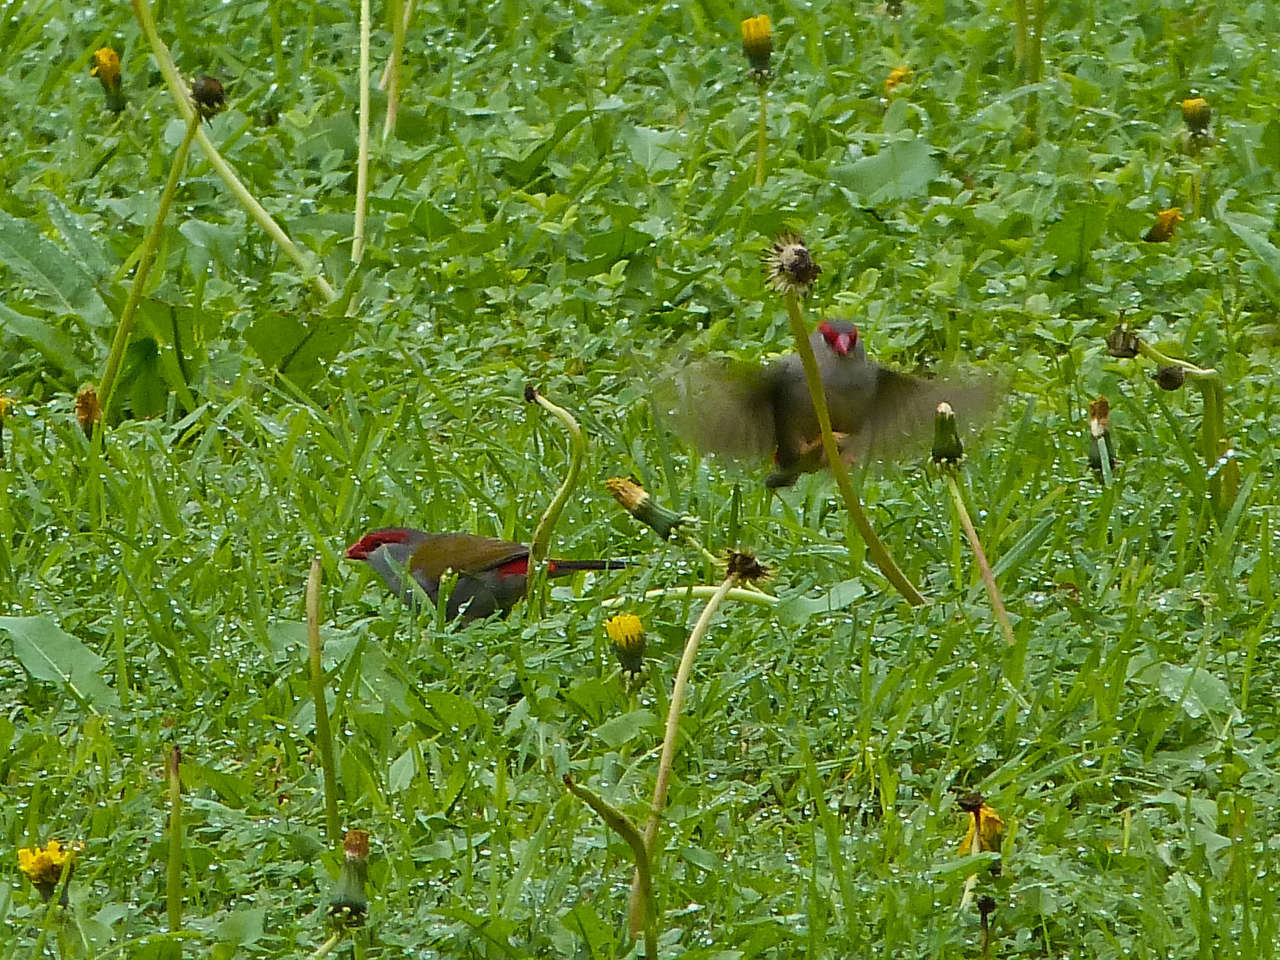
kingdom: Animalia
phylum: Chordata
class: Aves
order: Passeriformes
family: Estrildidae
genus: Neochmia
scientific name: Neochmia temporalis
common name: Red-browed finch
